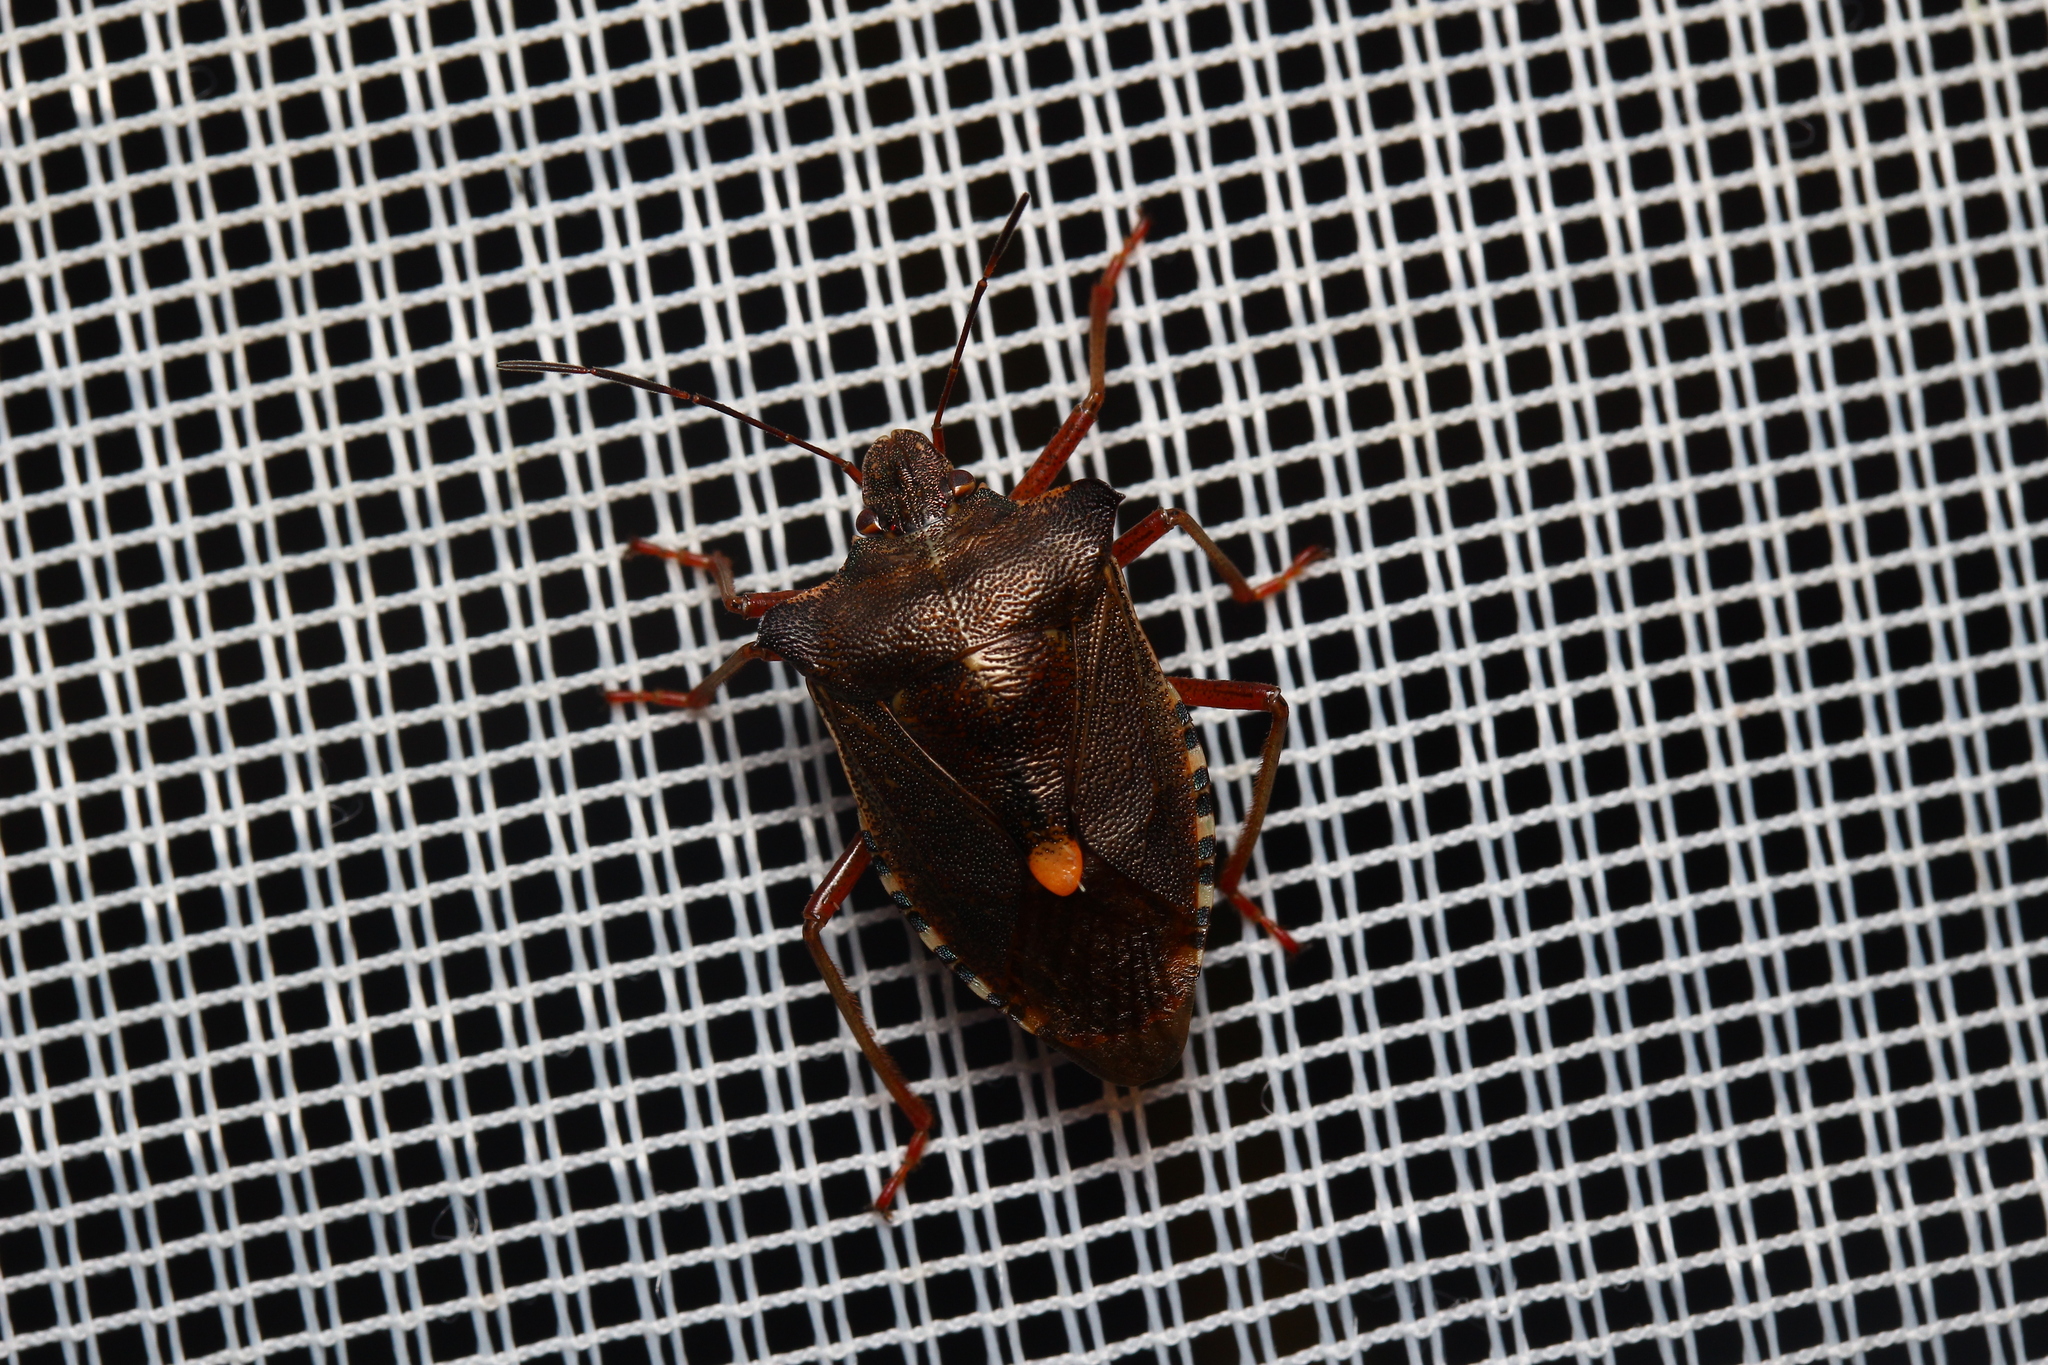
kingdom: Animalia
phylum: Arthropoda
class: Insecta
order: Hemiptera
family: Pentatomidae
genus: Pentatoma
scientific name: Pentatoma rufipes
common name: Forest bug
